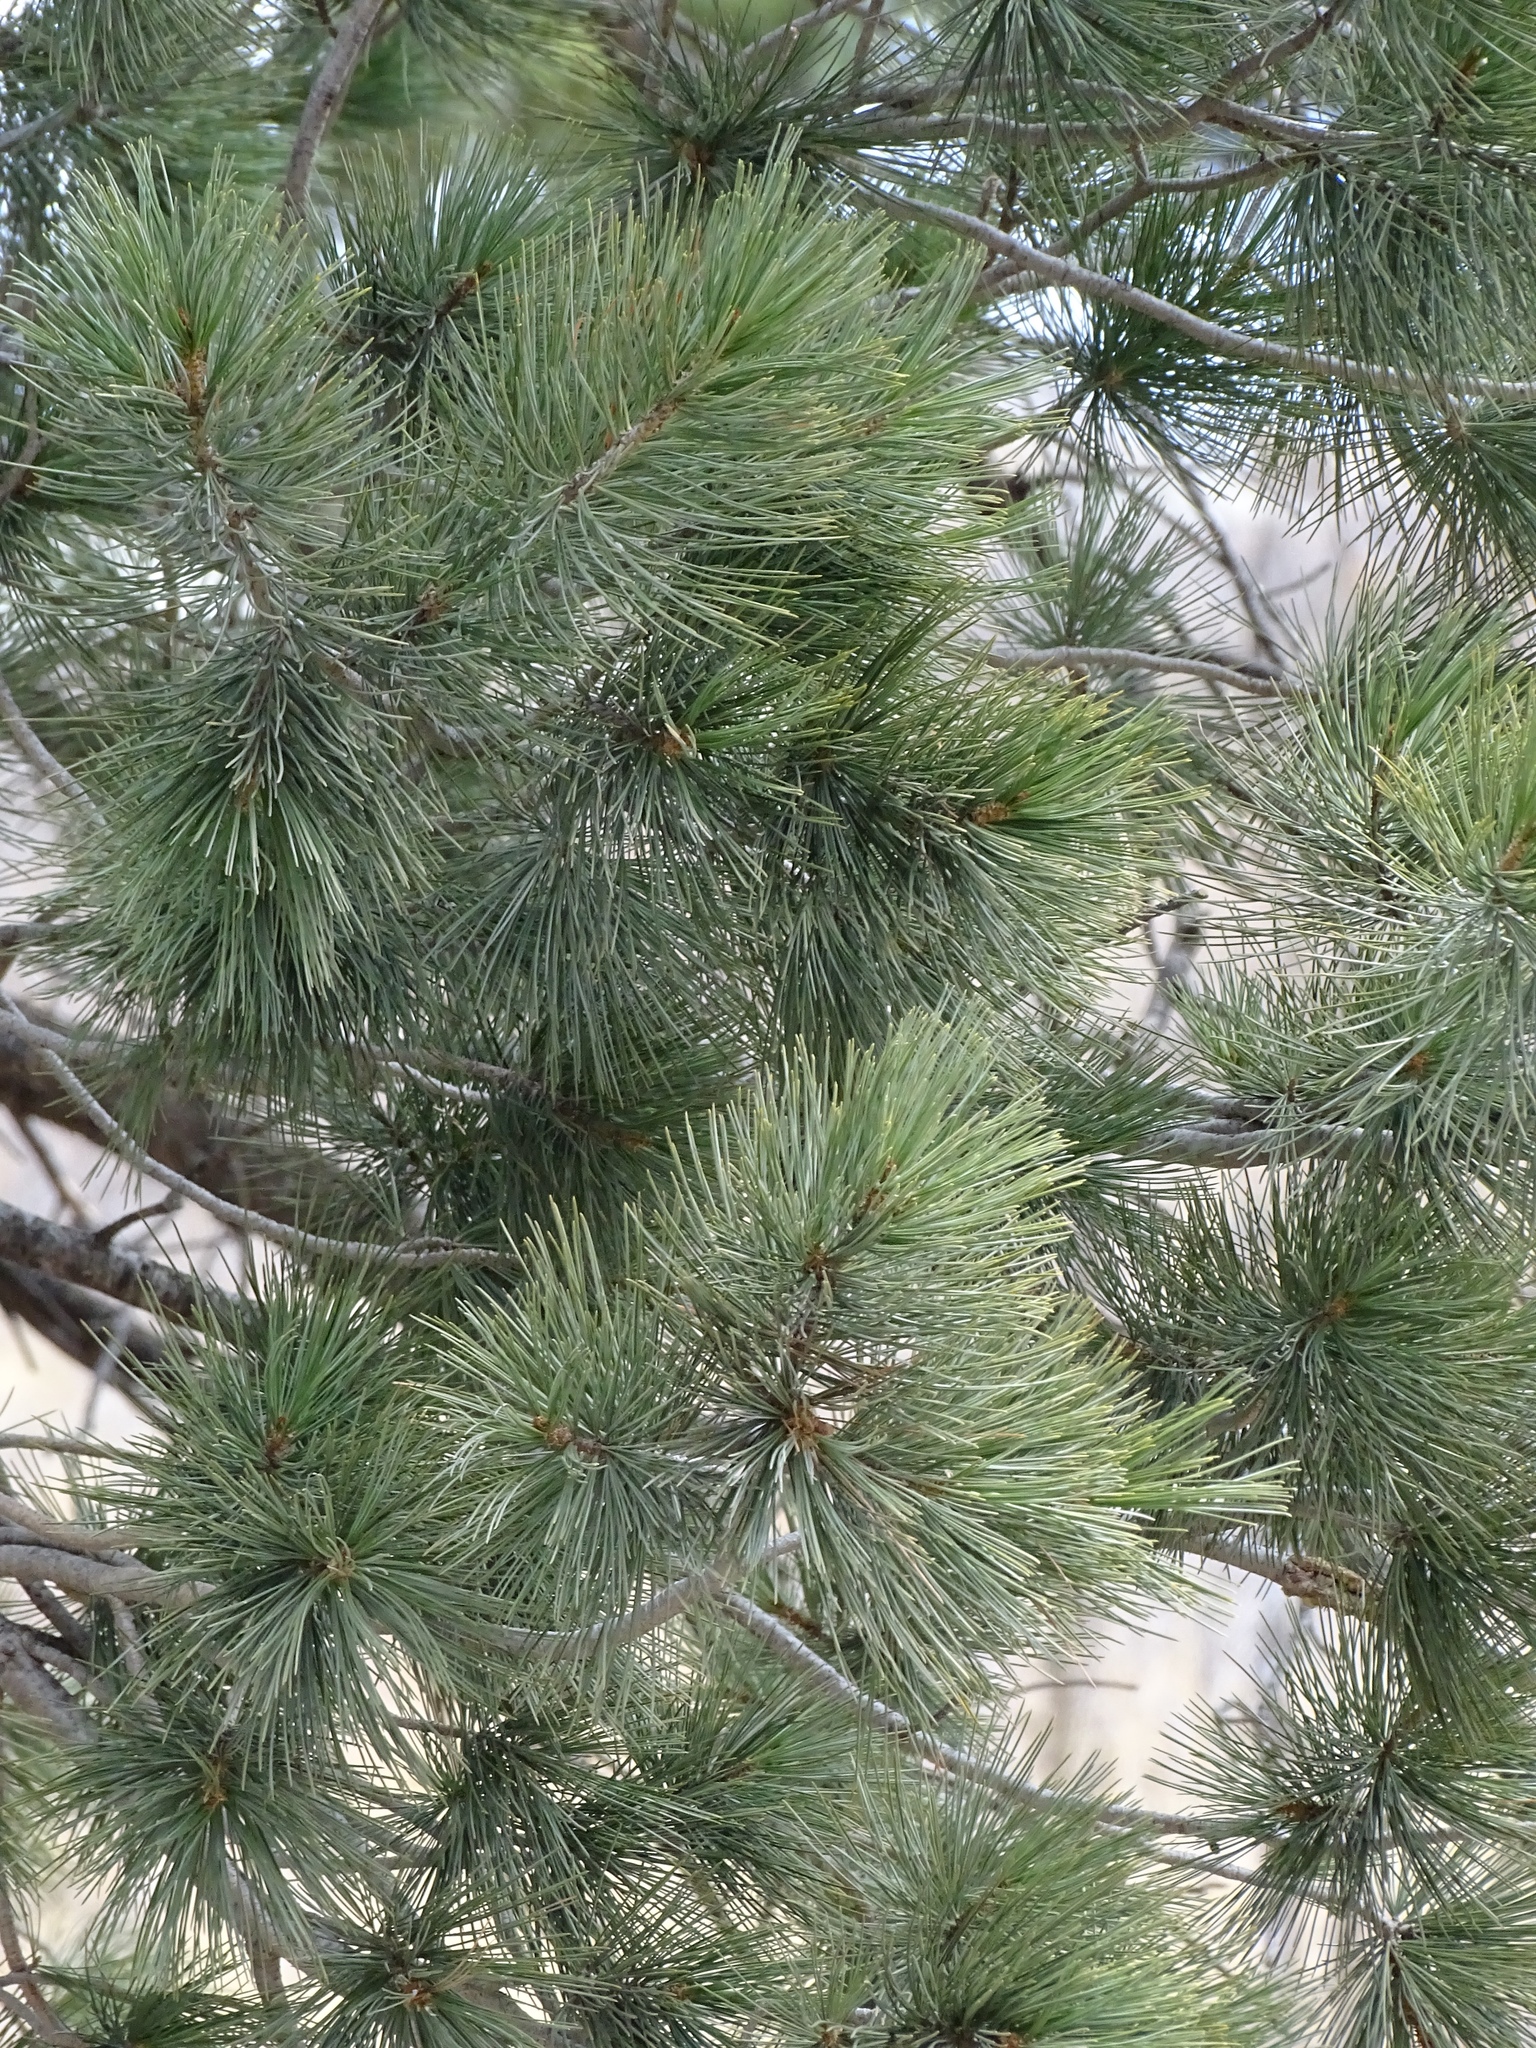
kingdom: Plantae
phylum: Tracheophyta
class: Pinopsida
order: Pinales
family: Pinaceae
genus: Pinus
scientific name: Pinus strobiformis
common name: Southwestern white pine
